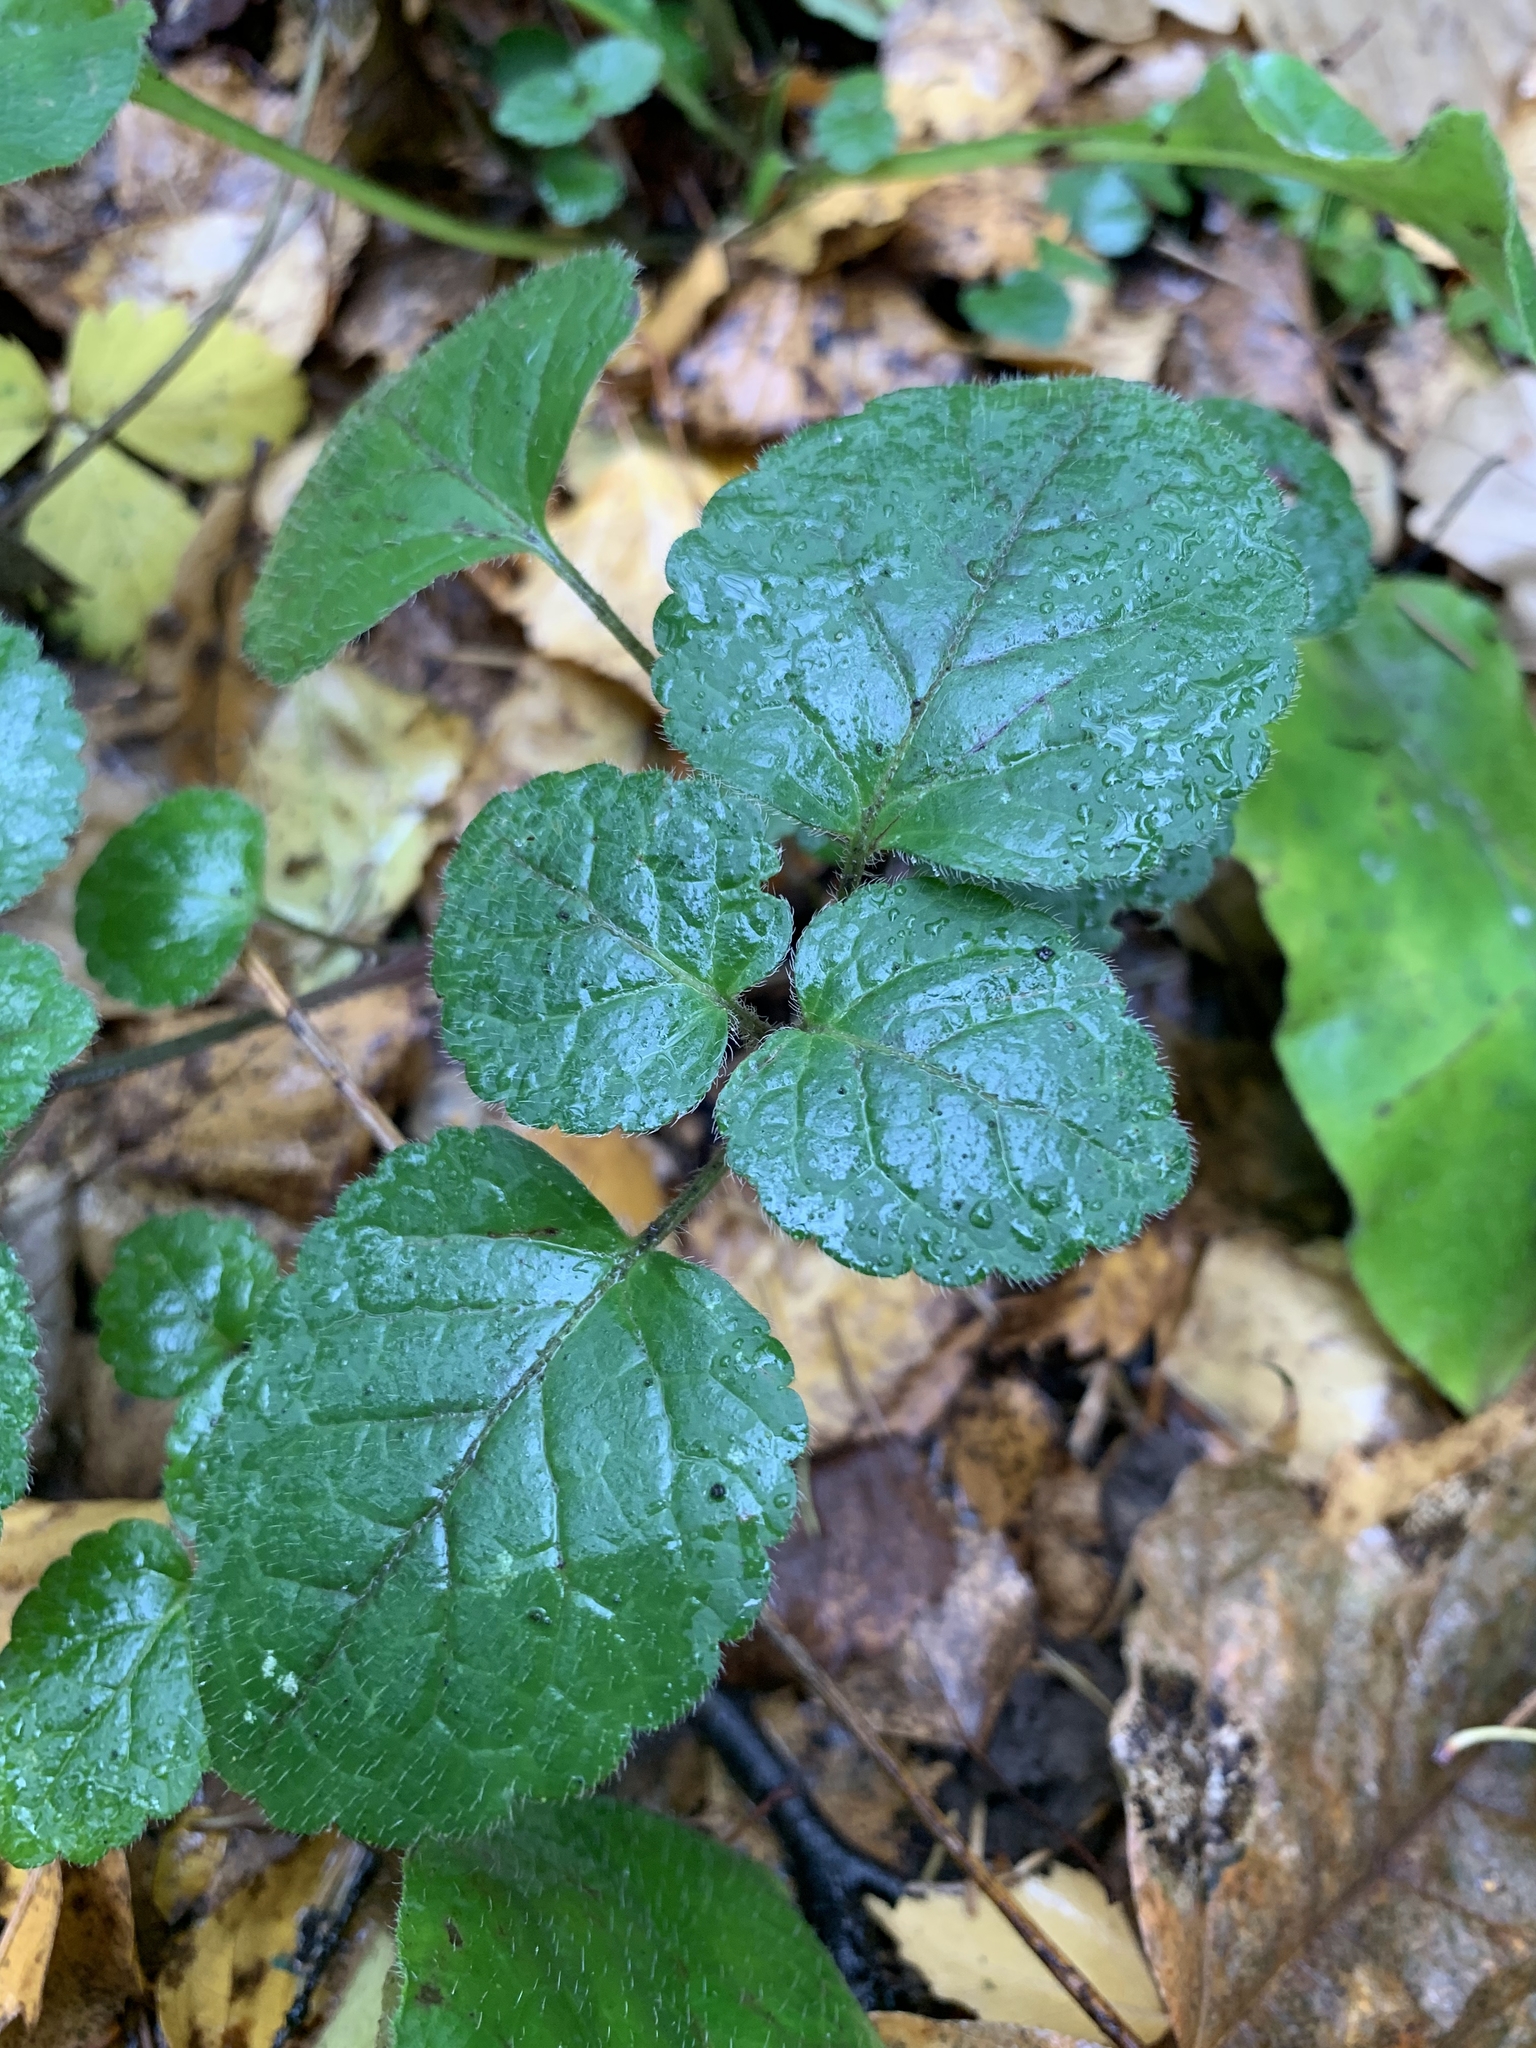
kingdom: Plantae
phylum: Tracheophyta
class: Magnoliopsida
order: Lamiales
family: Lamiaceae
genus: Lamium
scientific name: Lamium galeobdolon
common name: Yellow archangel
